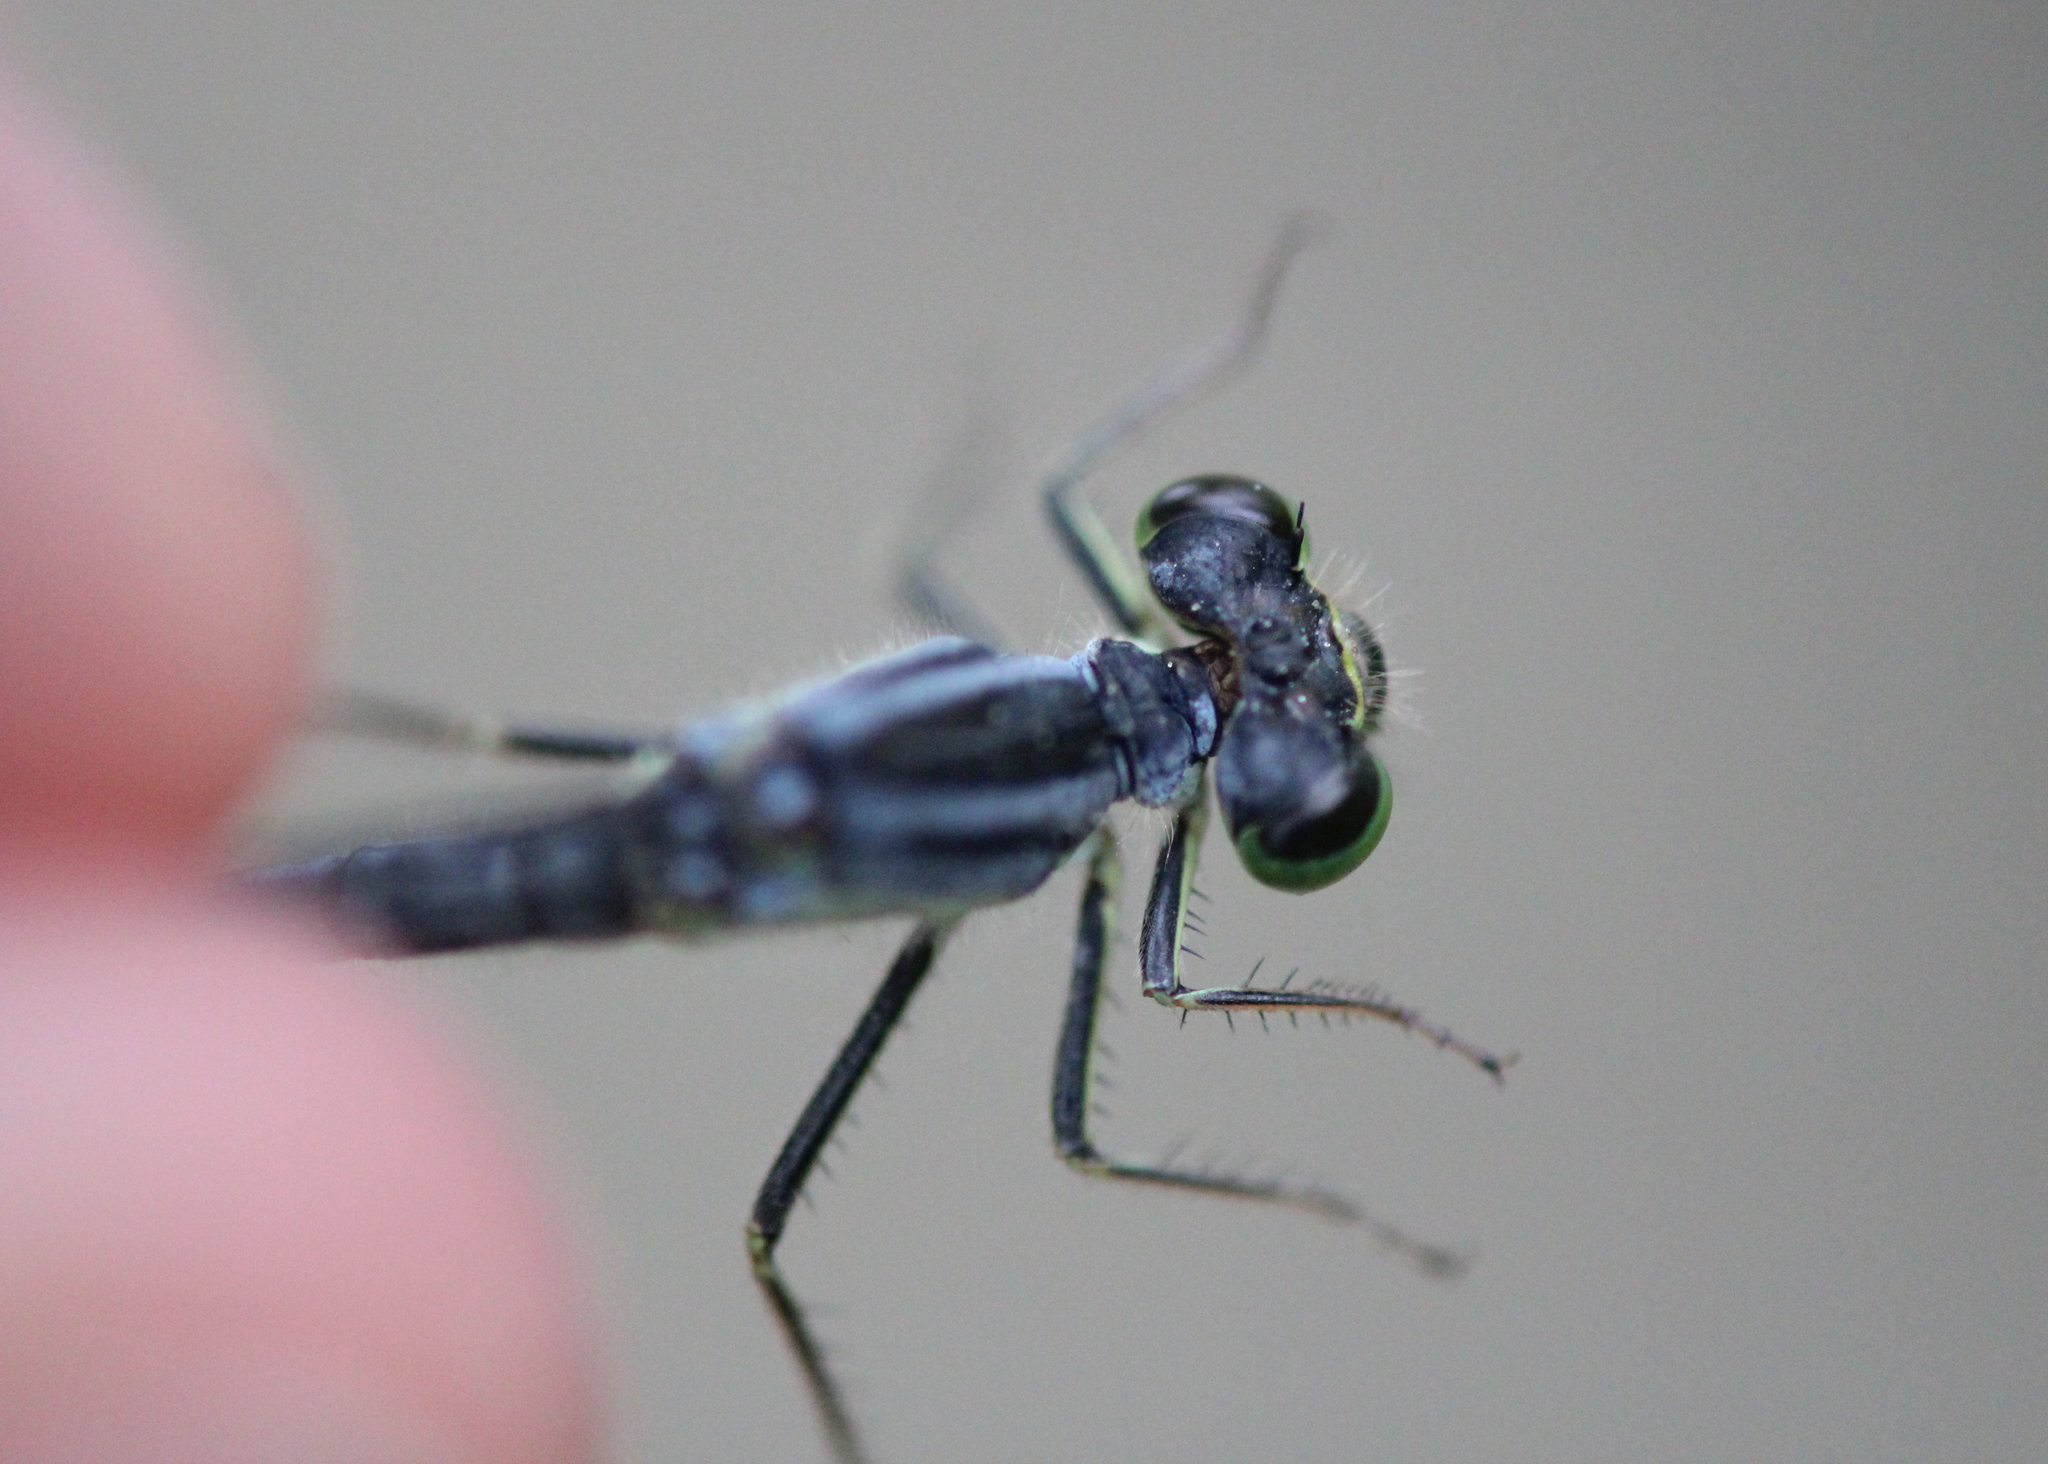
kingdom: Animalia
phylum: Arthropoda
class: Insecta
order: Odonata
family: Coenagrionidae
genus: Ischnura
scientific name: Ischnura verticalis
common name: Eastern forktail
